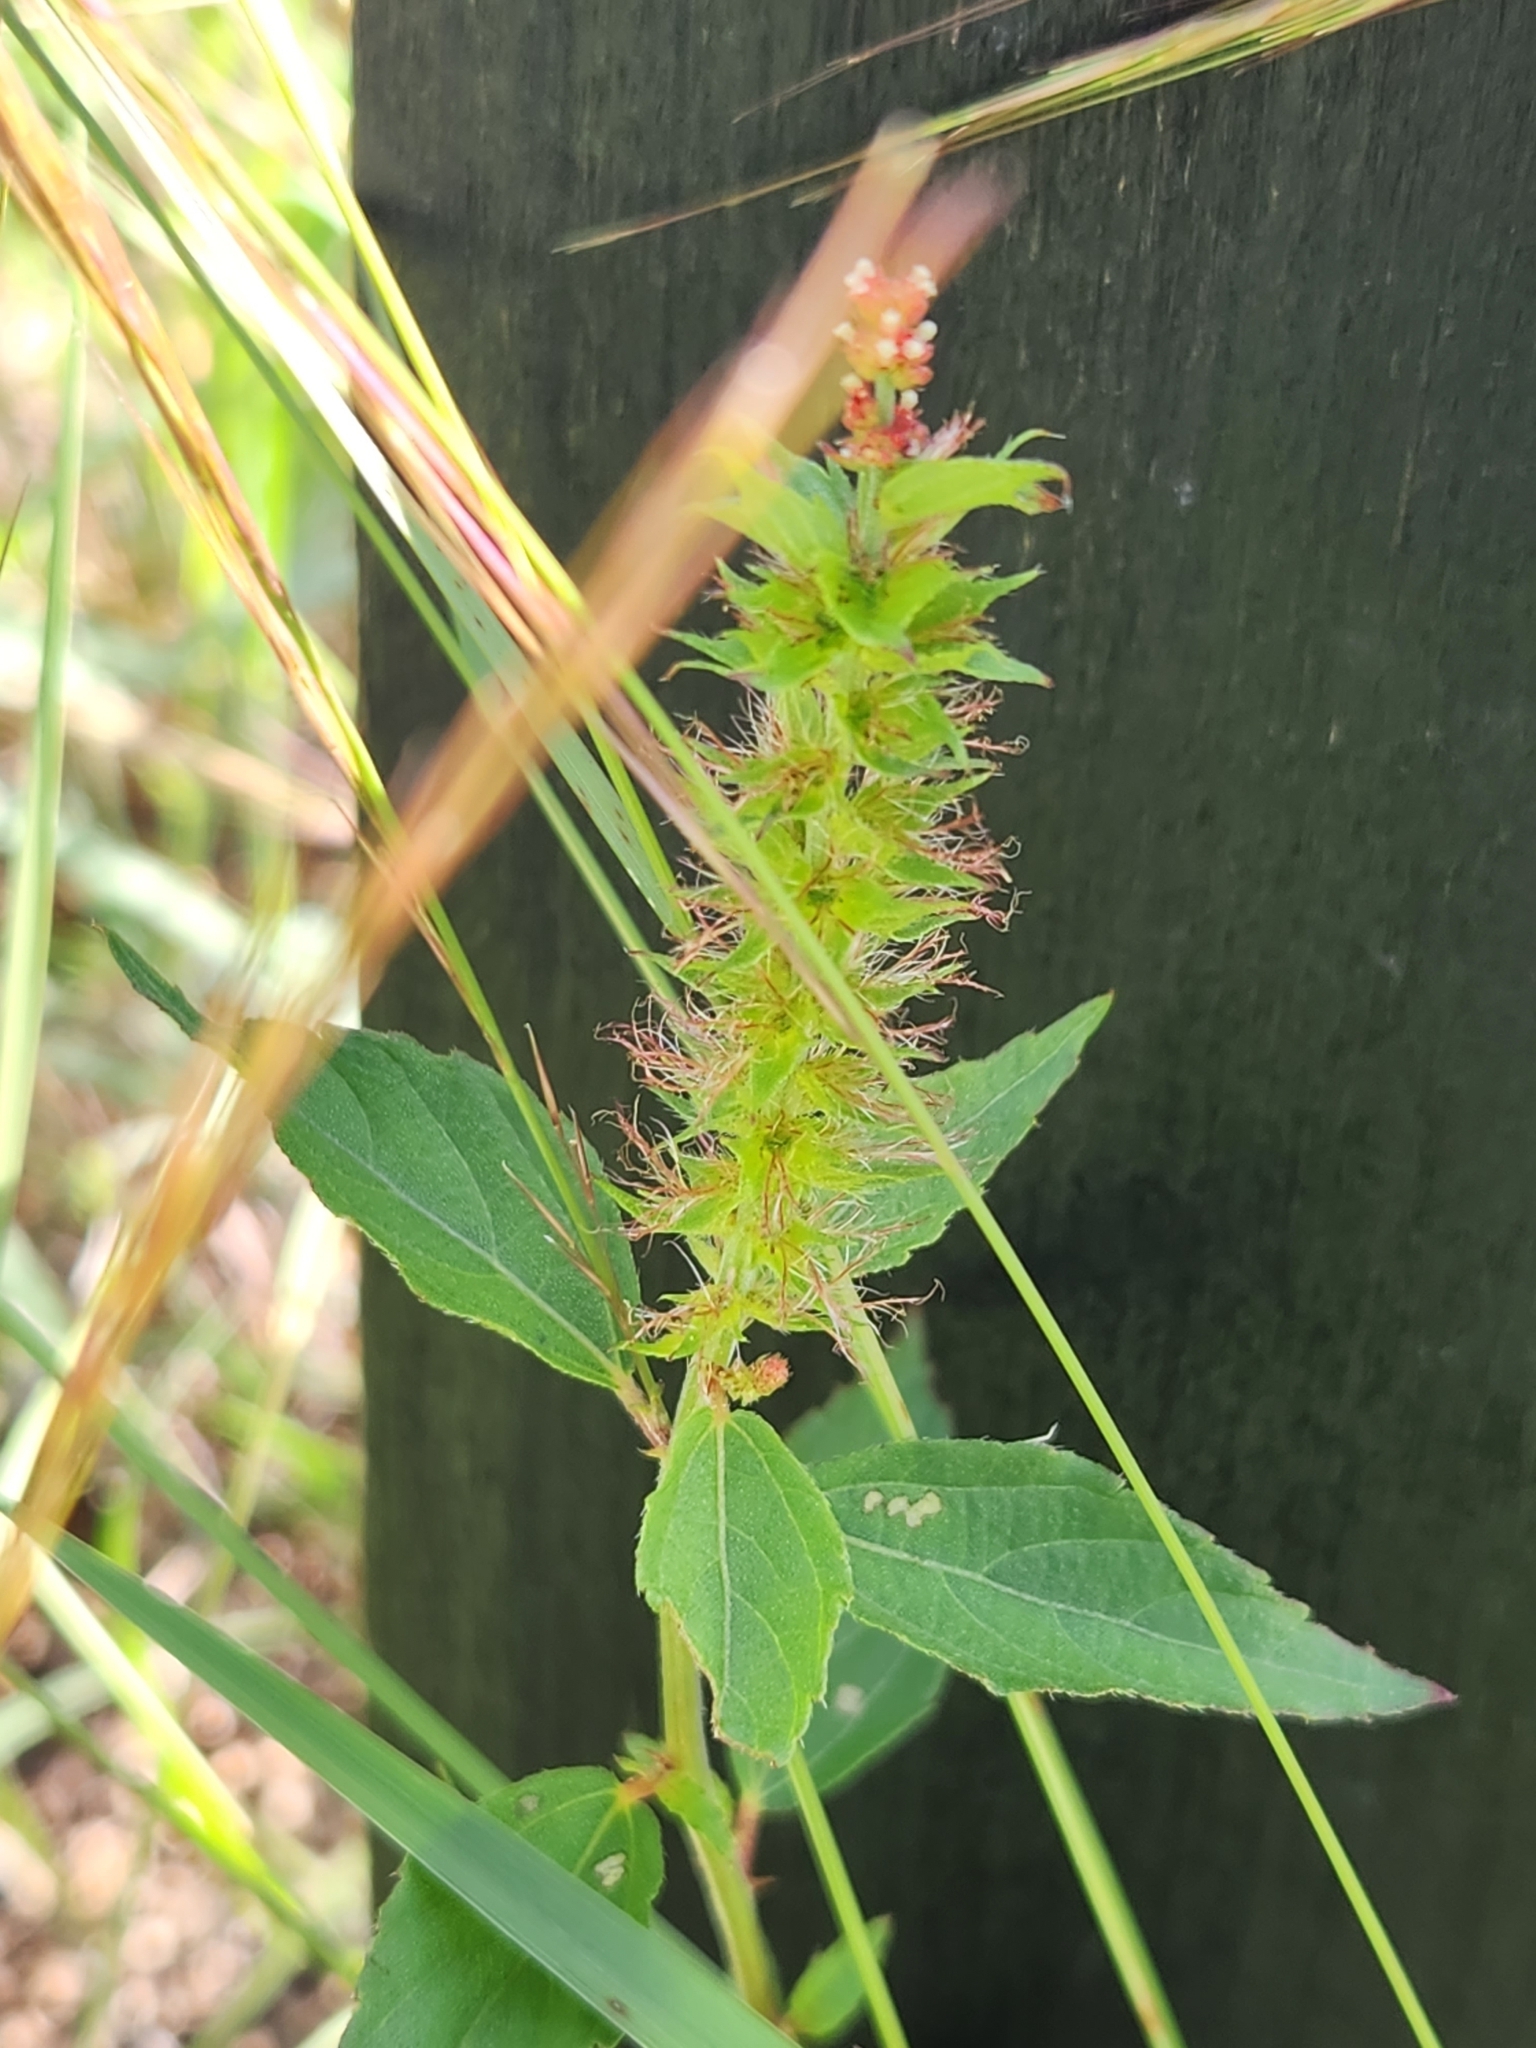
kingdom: Plantae
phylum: Tracheophyta
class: Magnoliopsida
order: Malpighiales
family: Euphorbiaceae
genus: Acalypha
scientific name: Acalypha phleoides
